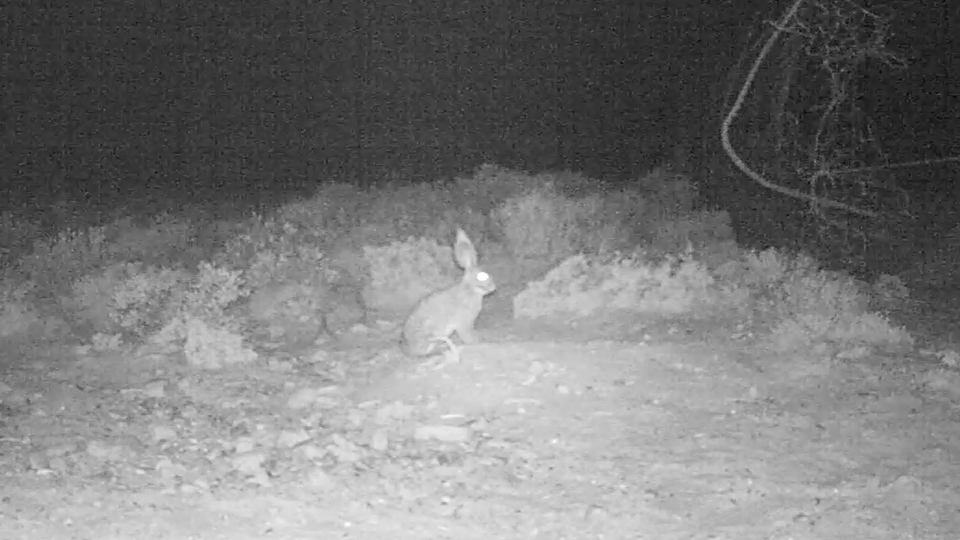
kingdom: Animalia
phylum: Chordata
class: Mammalia
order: Lagomorpha
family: Leporidae
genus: Bunolagus
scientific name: Bunolagus monticularis
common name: Riverine rabbit
